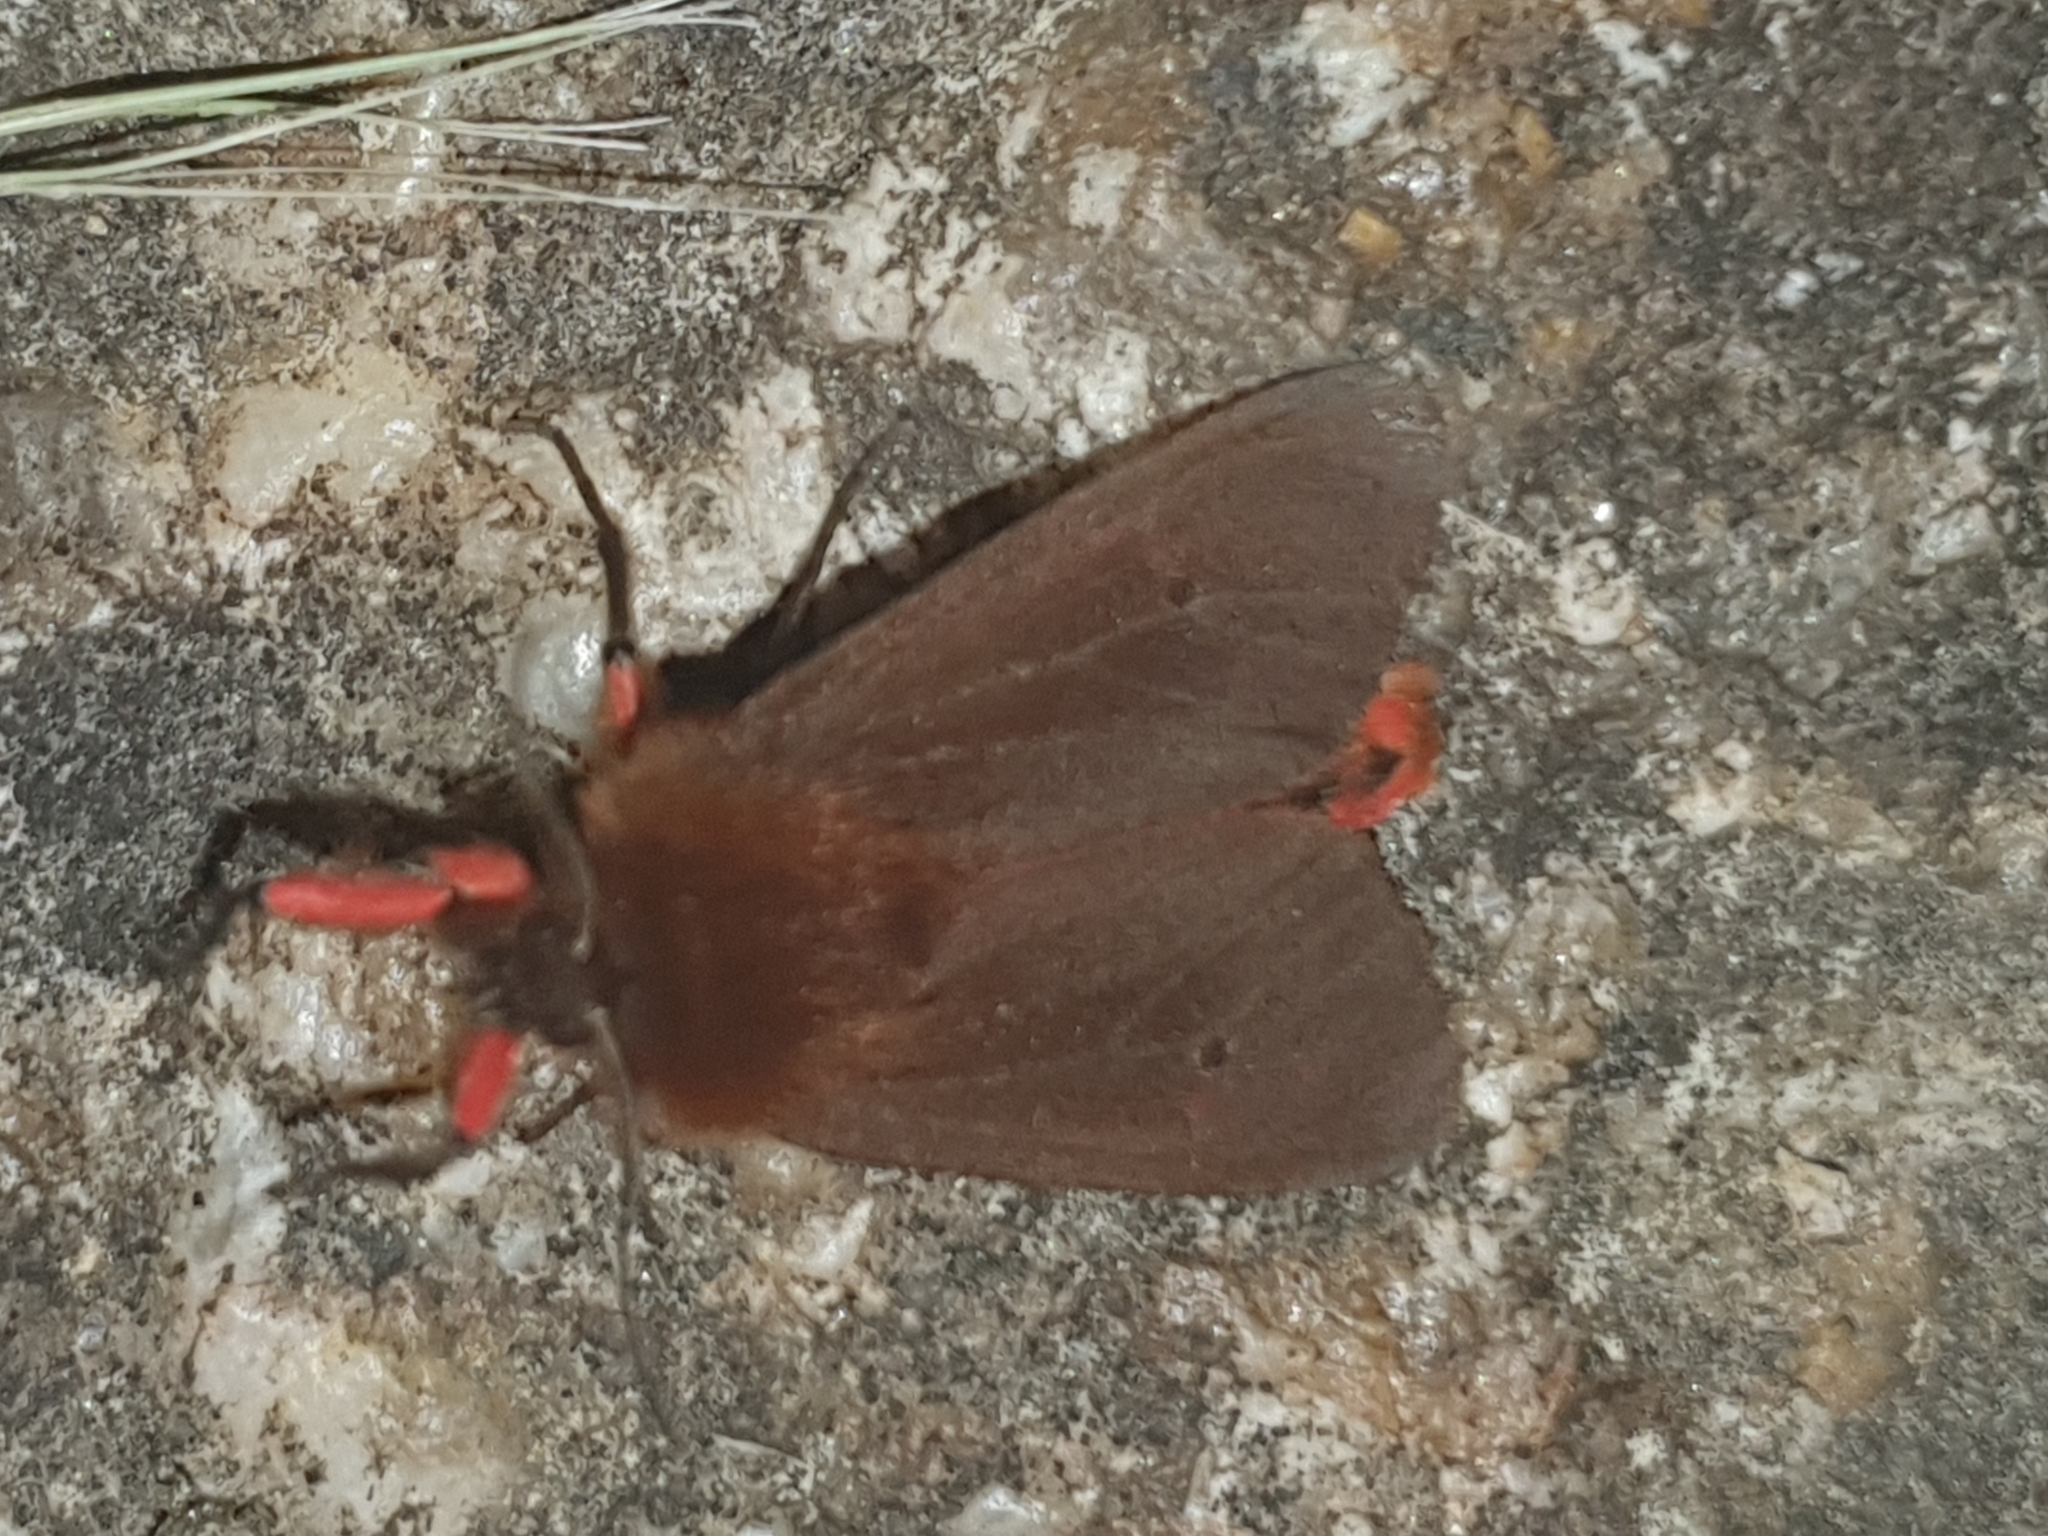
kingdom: Animalia
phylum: Arthropoda
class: Insecta
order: Lepidoptera
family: Erebidae
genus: Phragmatobia
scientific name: Phragmatobia fuliginosa
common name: Ruby tiger
